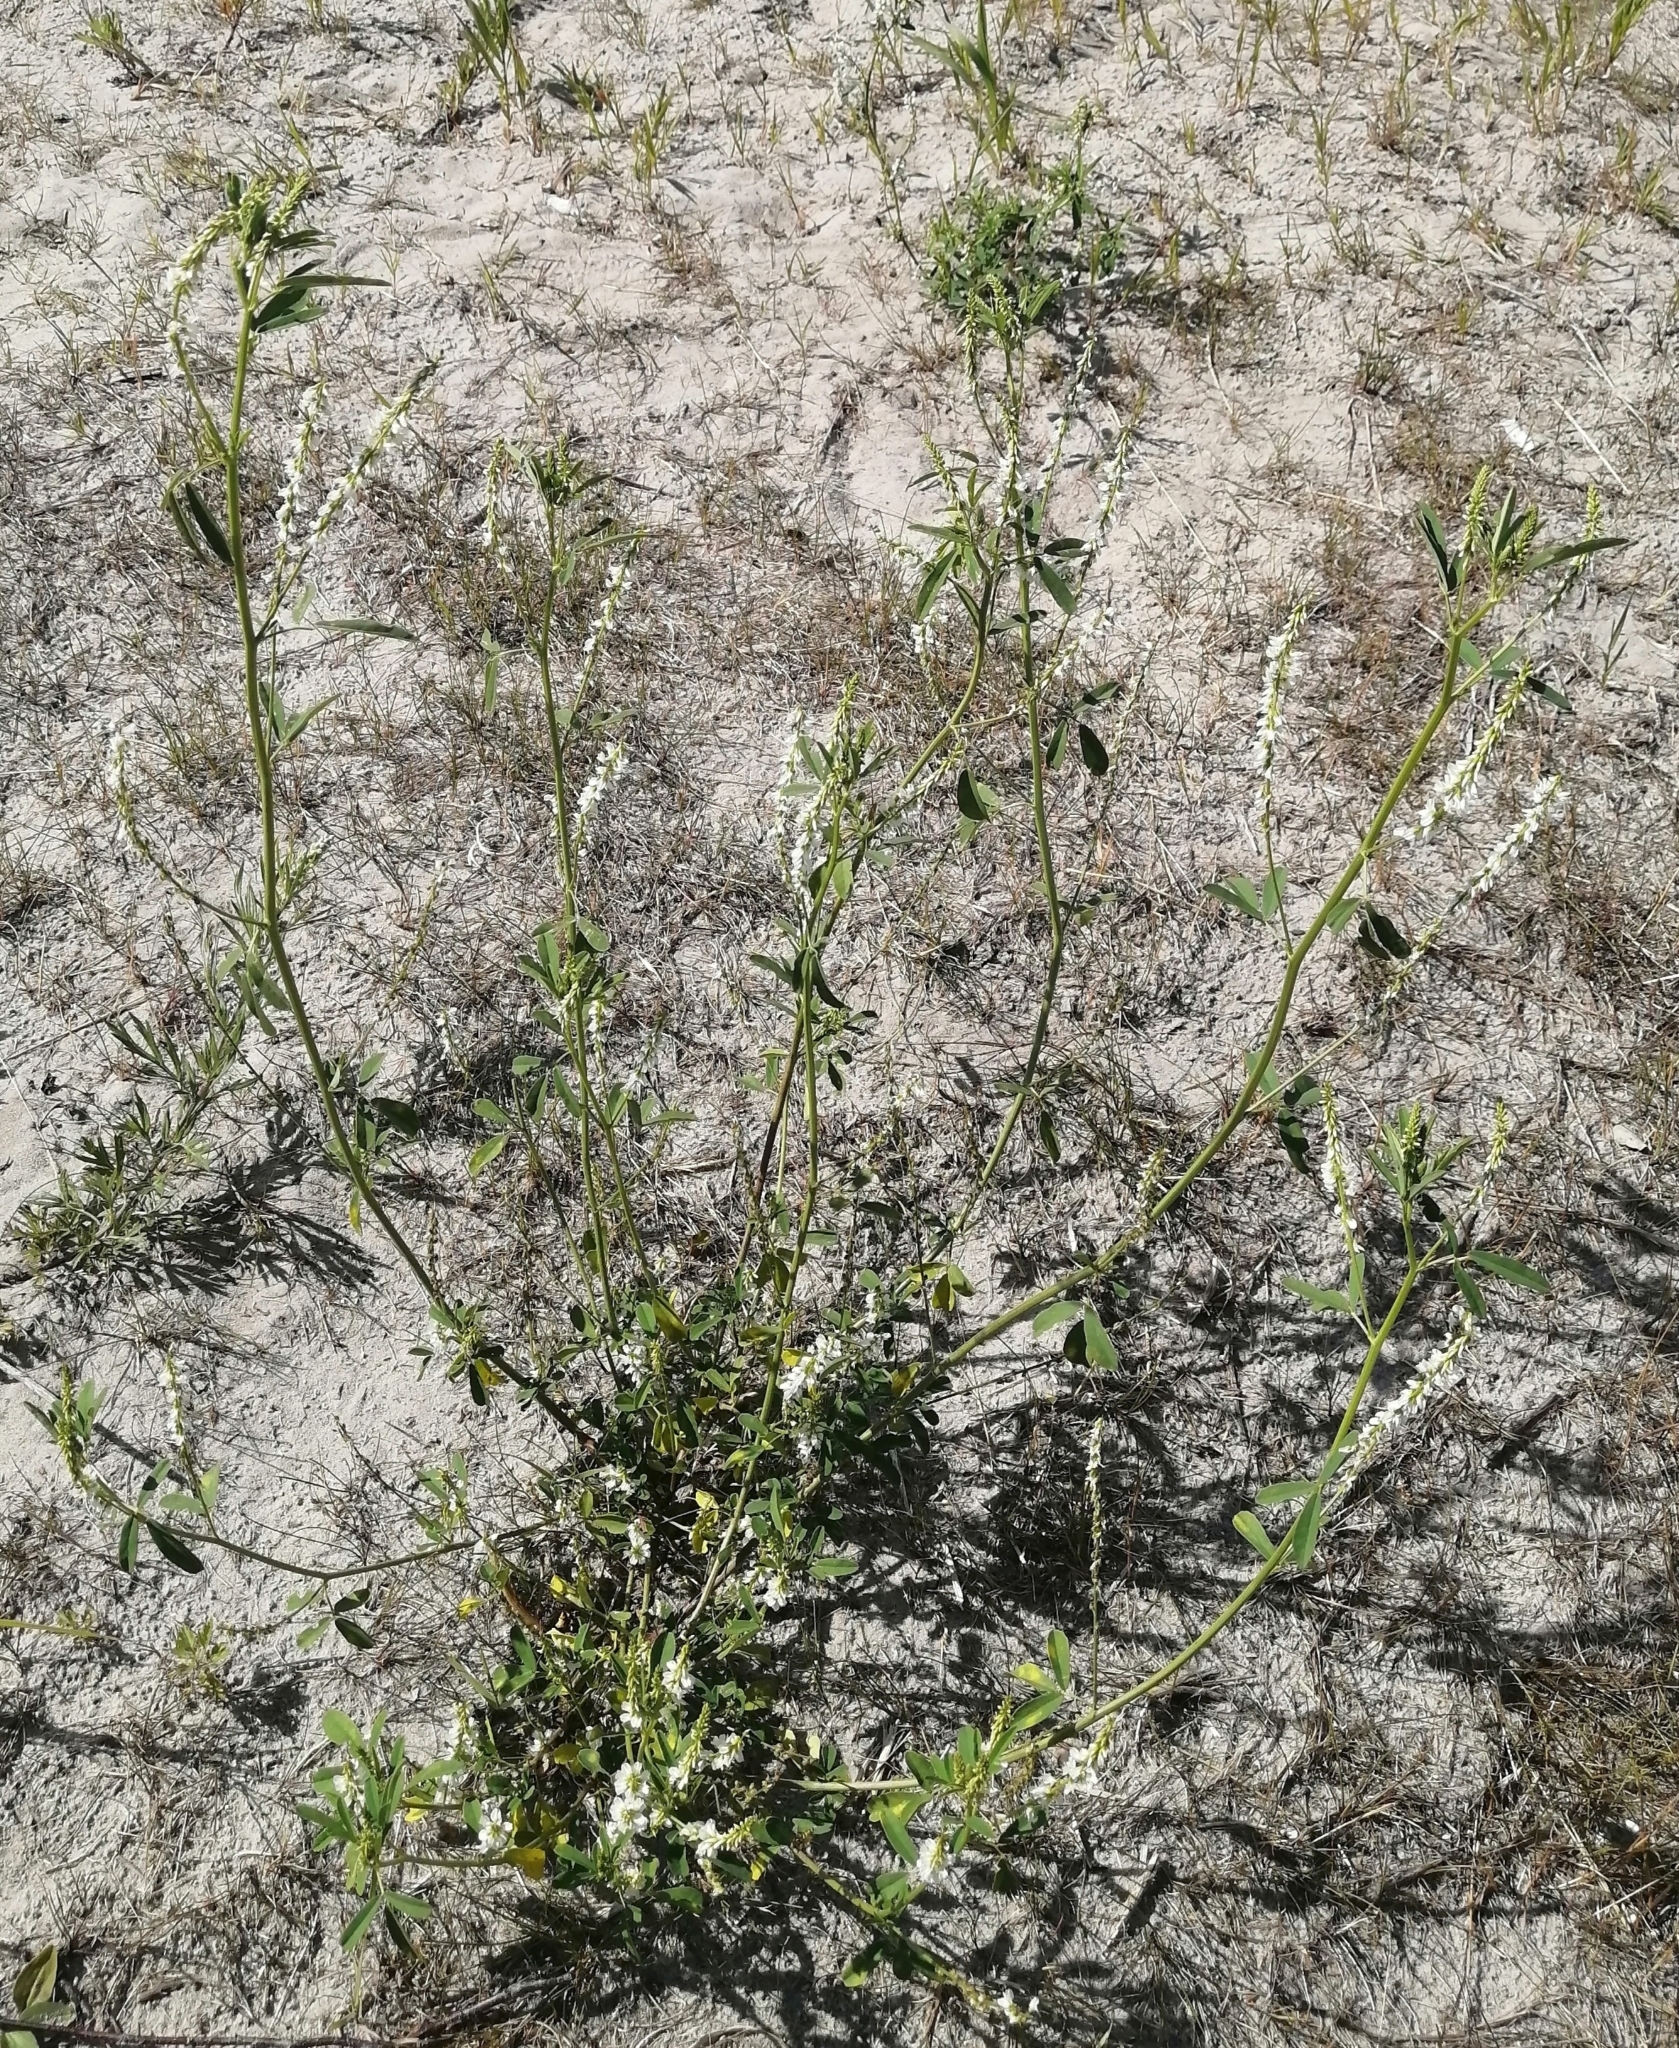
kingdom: Plantae
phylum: Tracheophyta
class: Magnoliopsida
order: Fabales
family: Fabaceae
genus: Melilotus
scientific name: Melilotus albus
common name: White melilot
